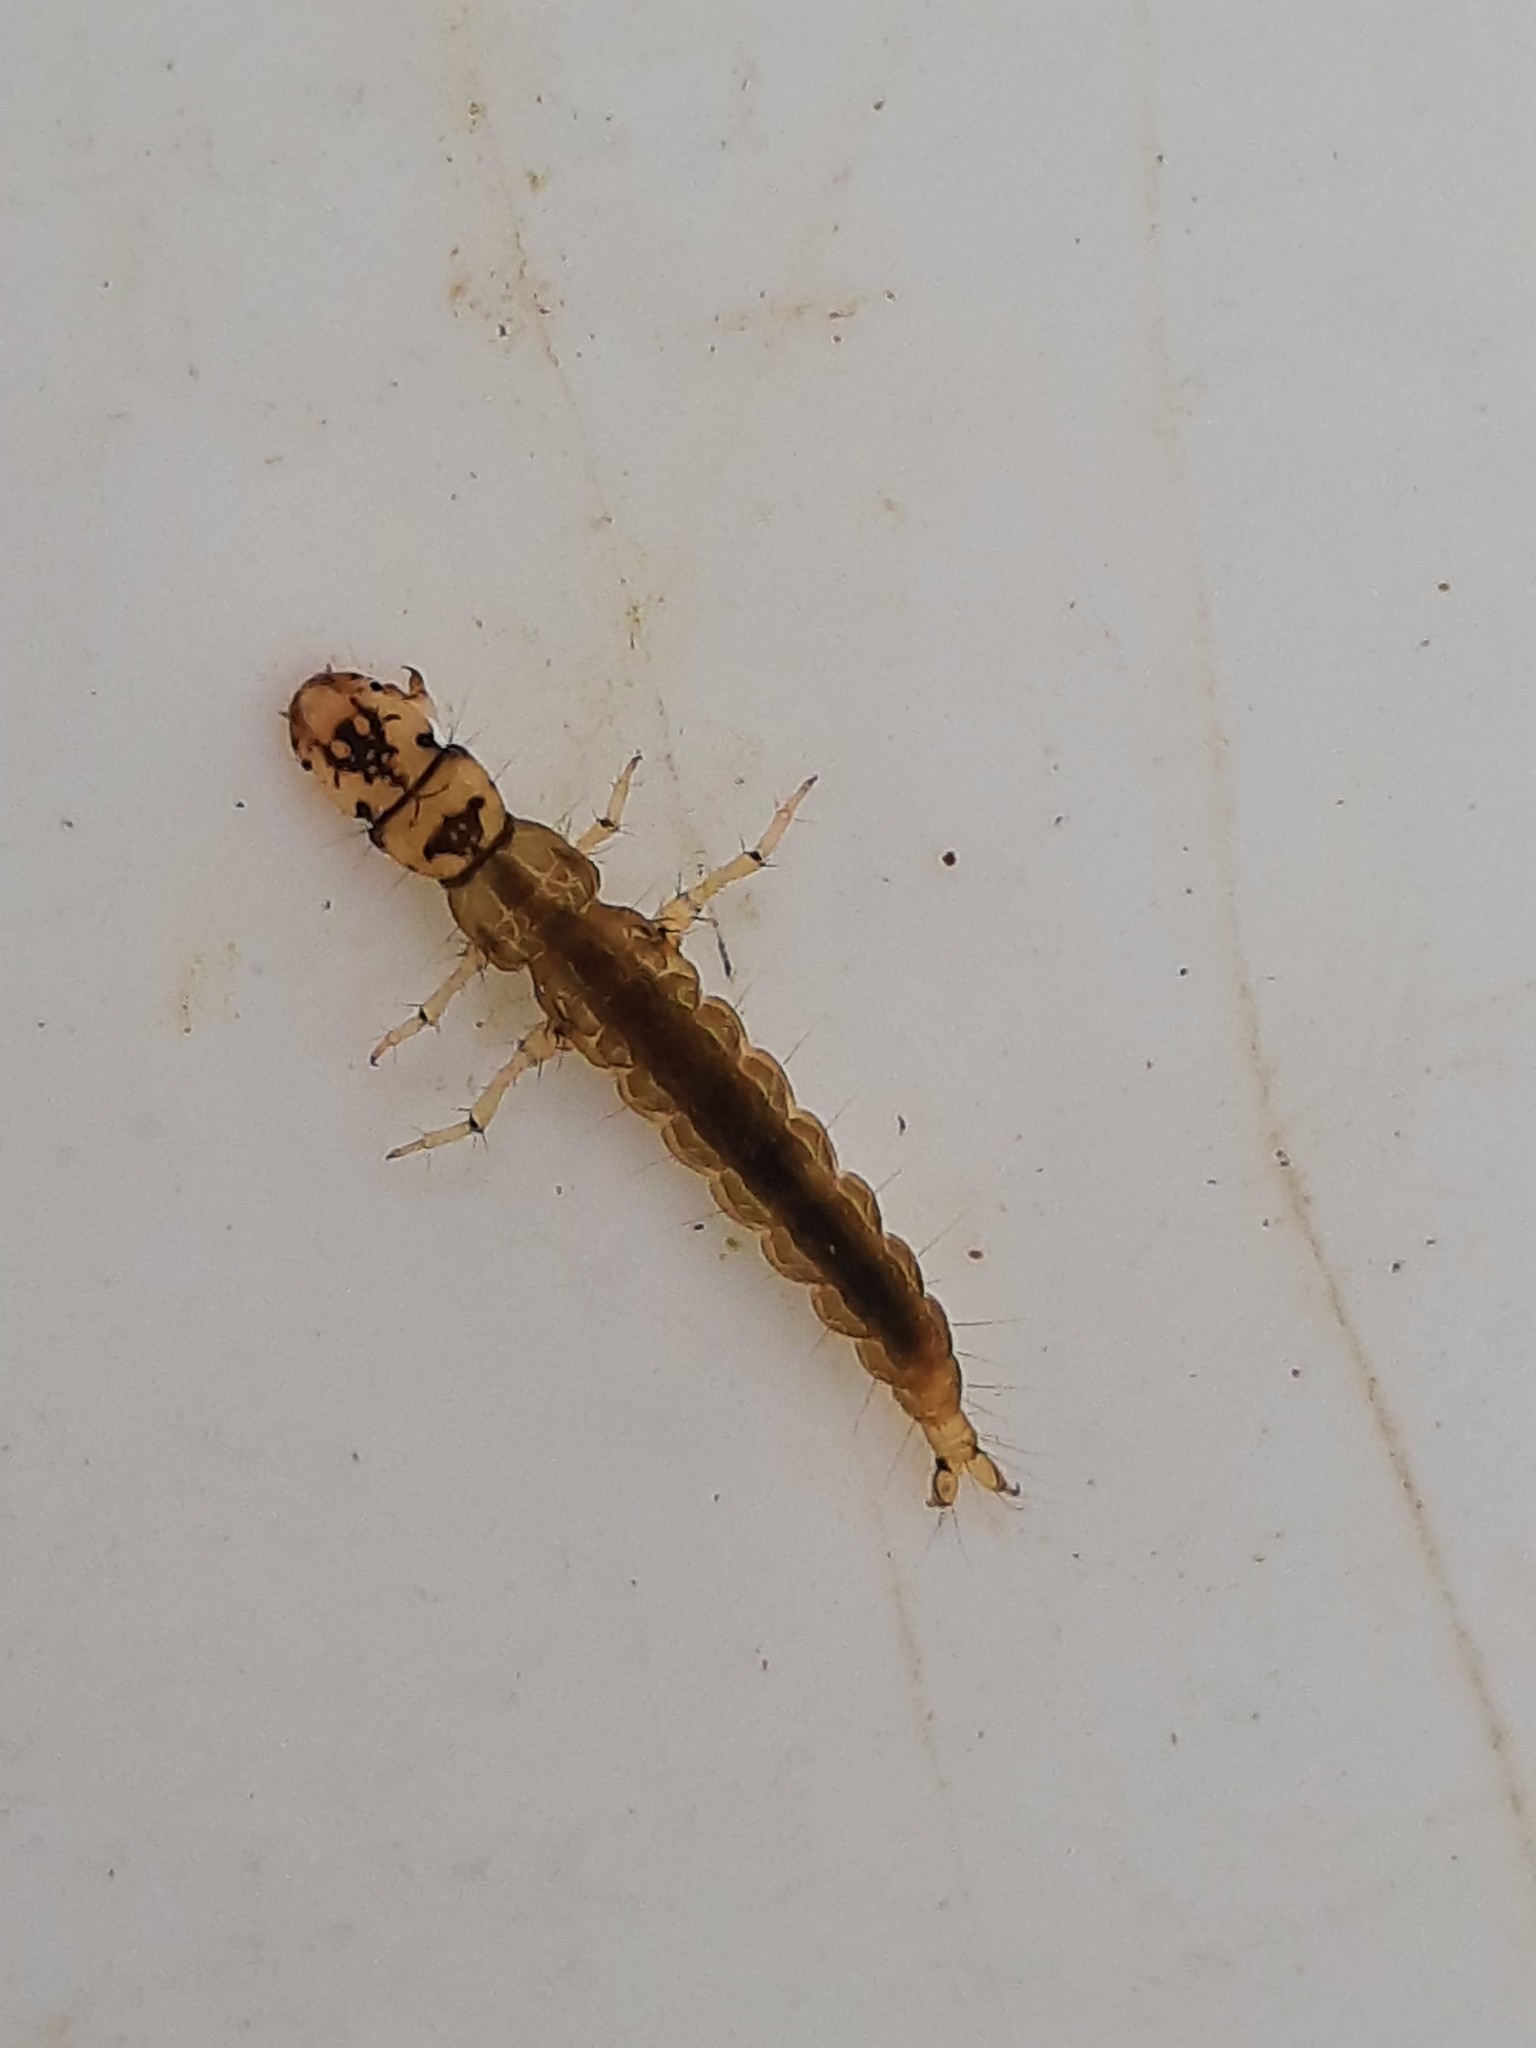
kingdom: Animalia
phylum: Arthropoda
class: Insecta
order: Trichoptera
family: Hydrobiosidae
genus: Hydrobiosis
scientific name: Hydrobiosis copis
